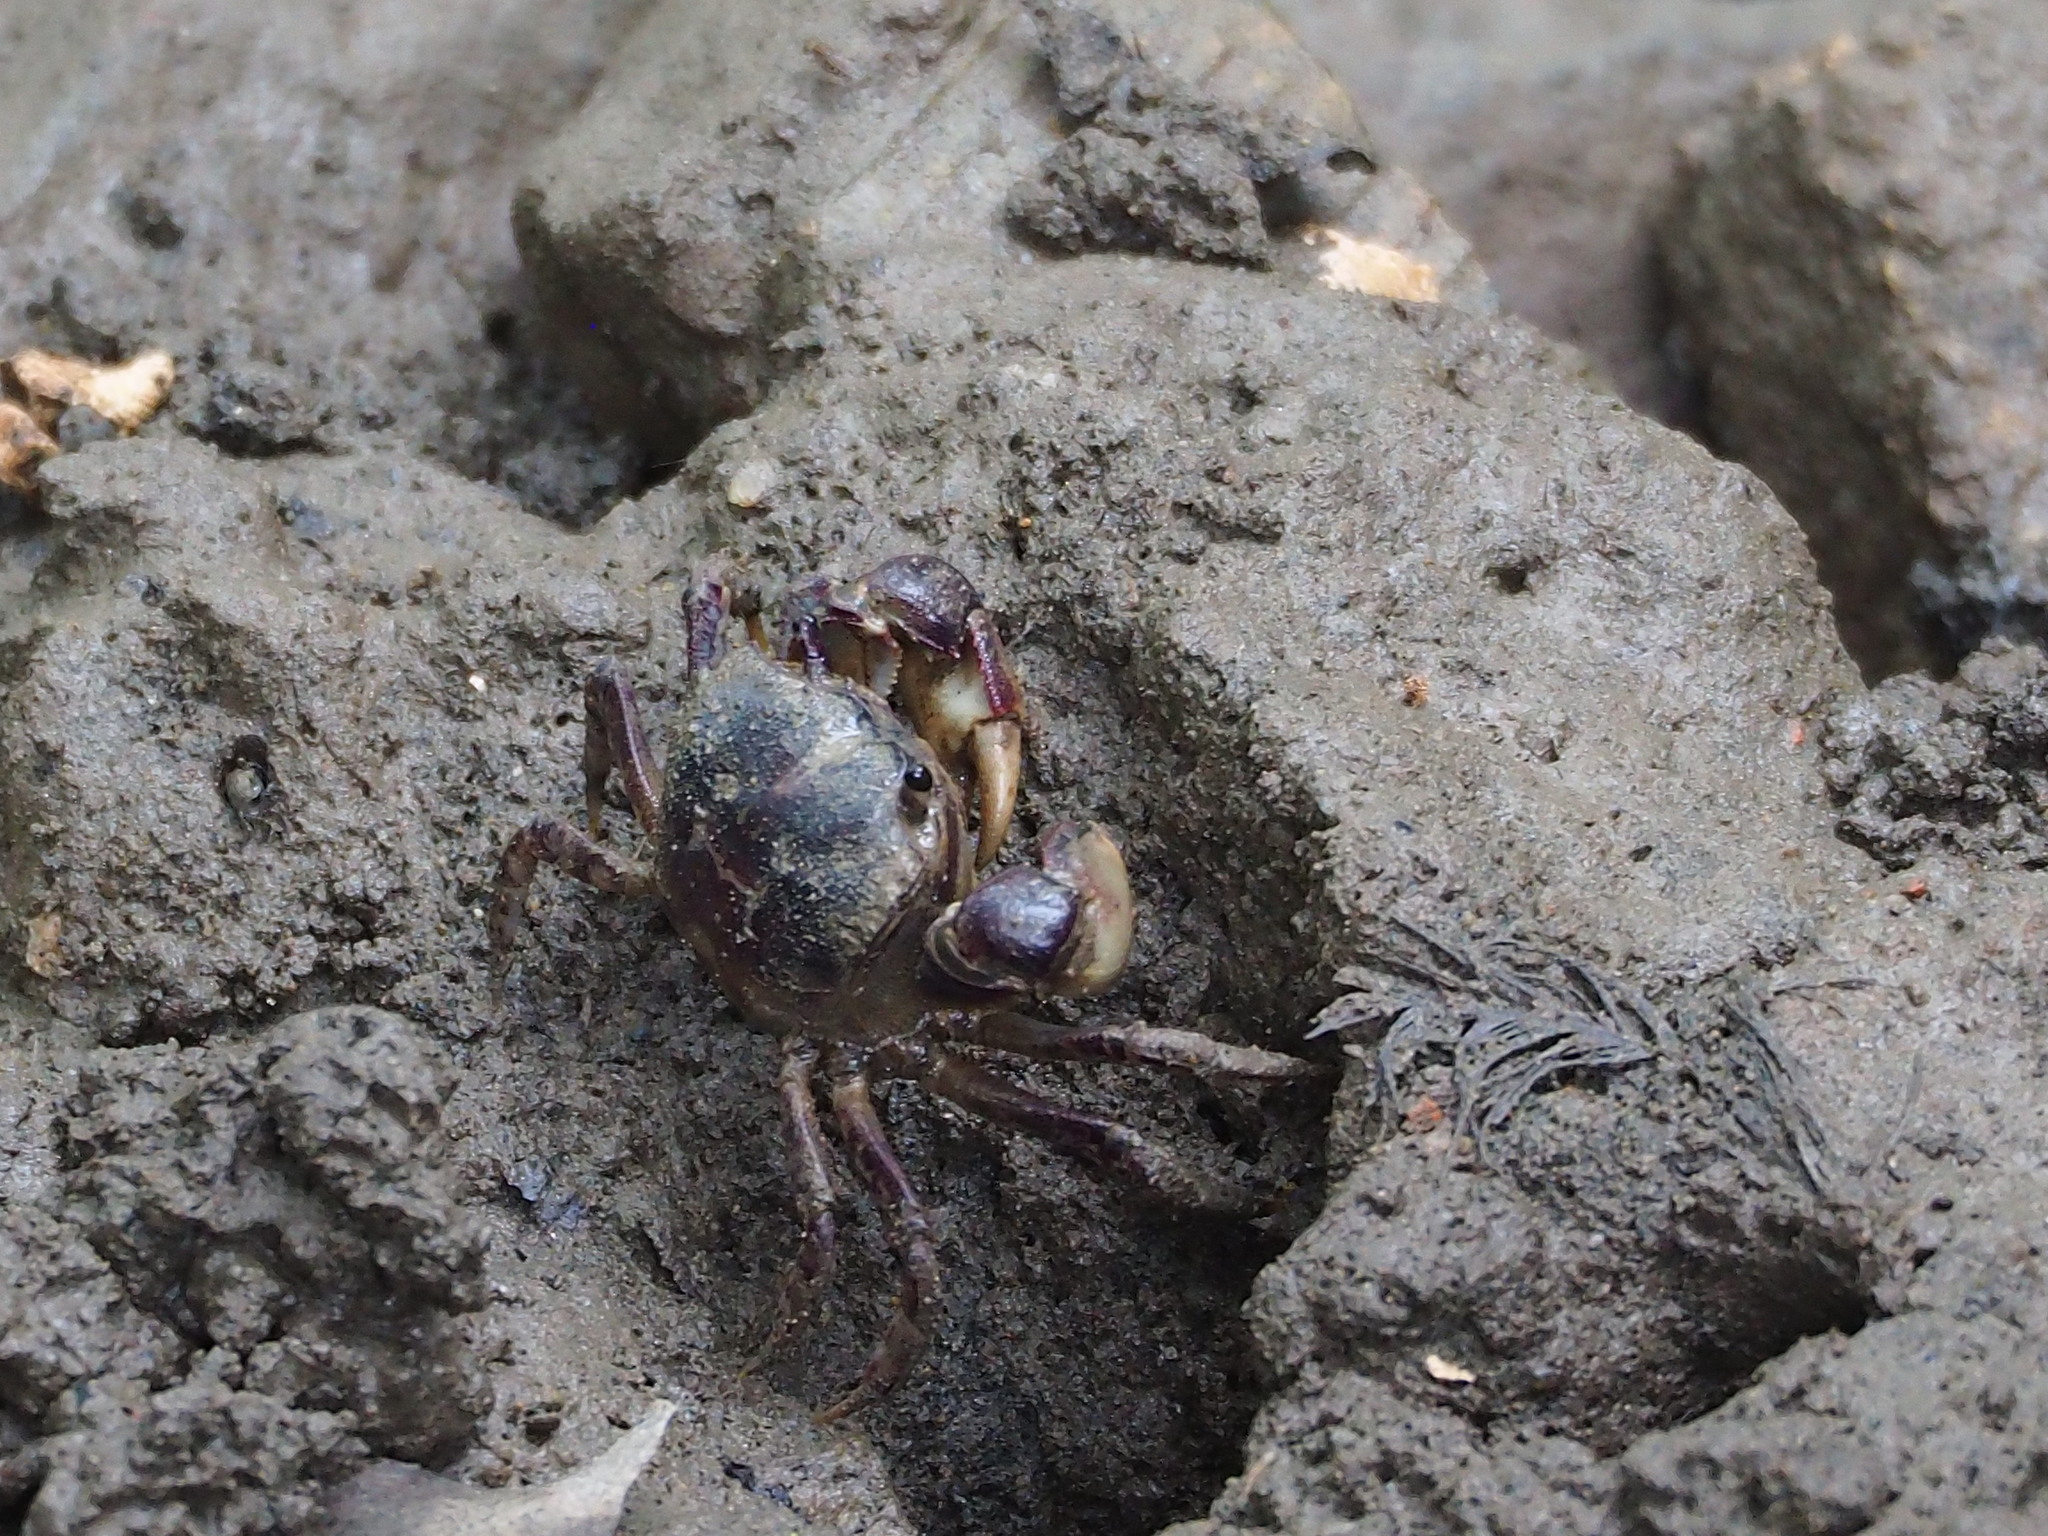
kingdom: Animalia
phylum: Arthropoda
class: Malacostraca
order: Decapoda
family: Varunidae
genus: Pseudohelice
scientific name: Pseudohelice subquadrata
